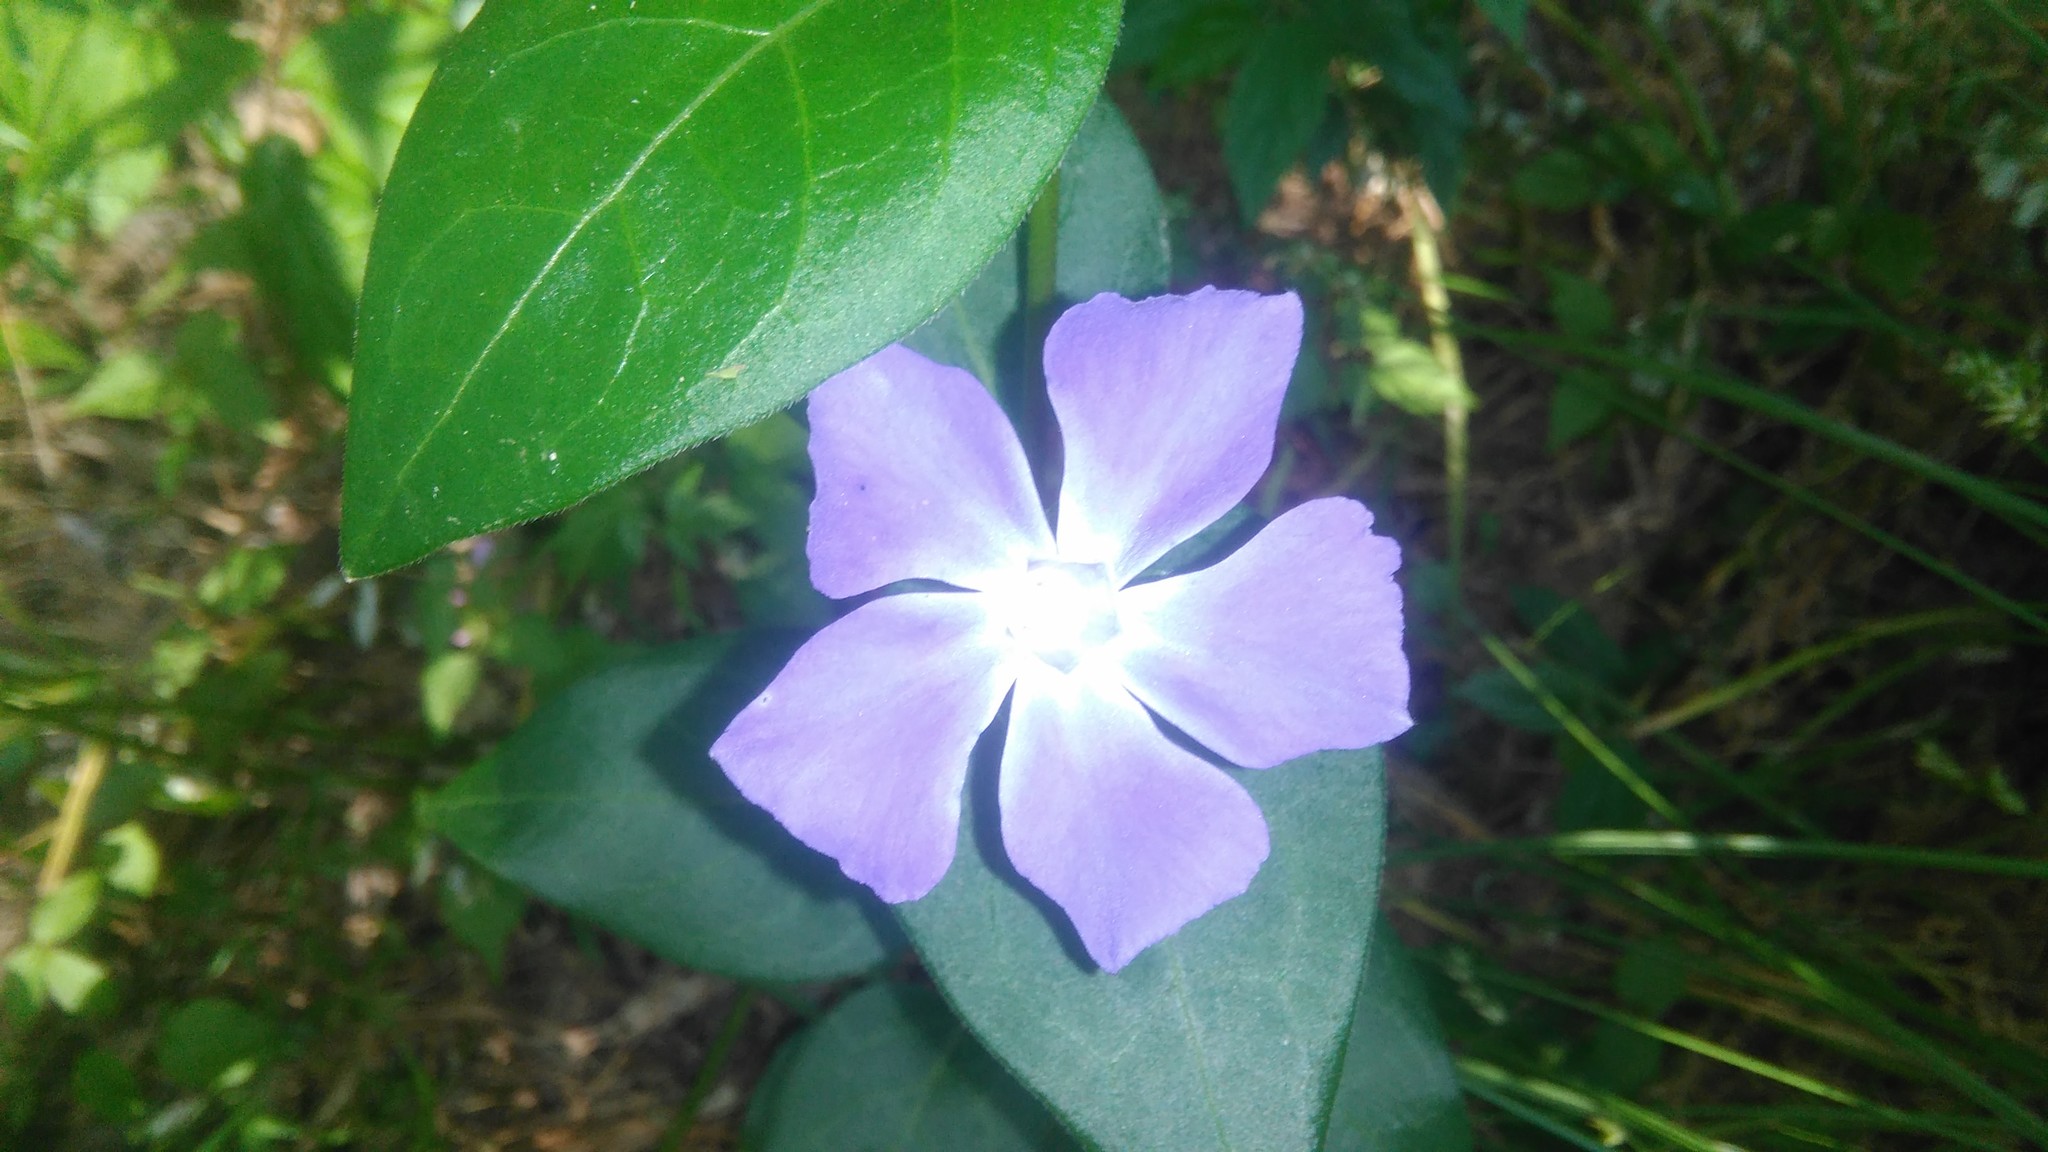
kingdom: Plantae
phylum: Tracheophyta
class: Magnoliopsida
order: Gentianales
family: Apocynaceae
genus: Vinca
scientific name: Vinca major
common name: Greater periwinkle
